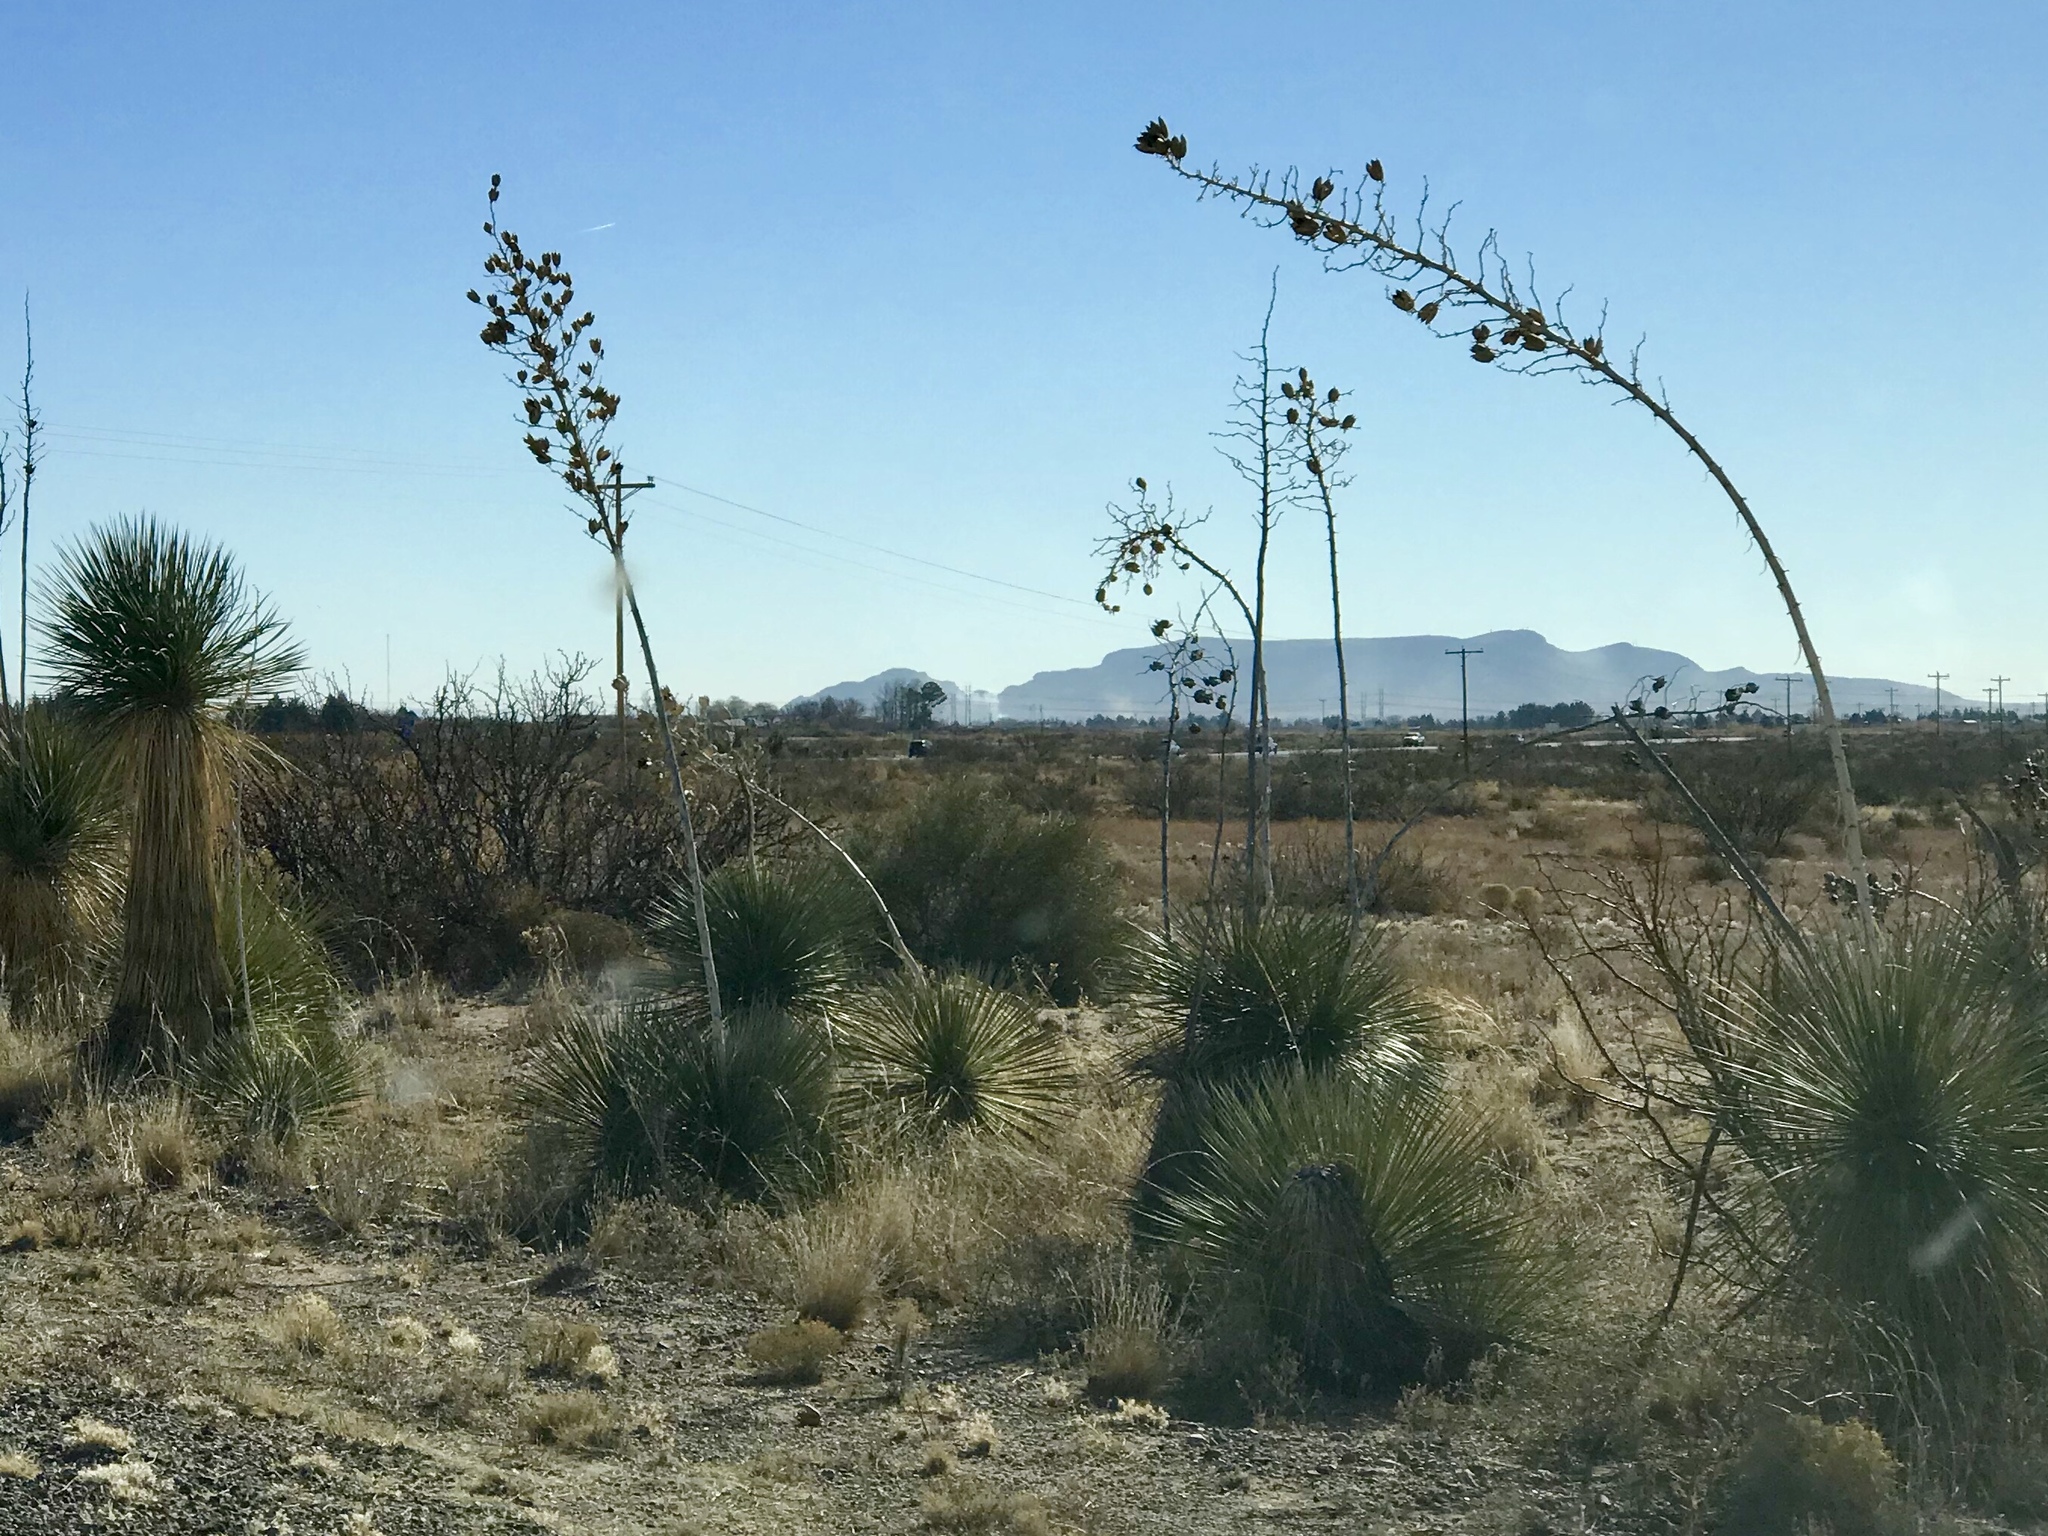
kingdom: Plantae
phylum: Tracheophyta
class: Liliopsida
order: Asparagales
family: Asparagaceae
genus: Yucca
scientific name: Yucca elata
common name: Palmella
